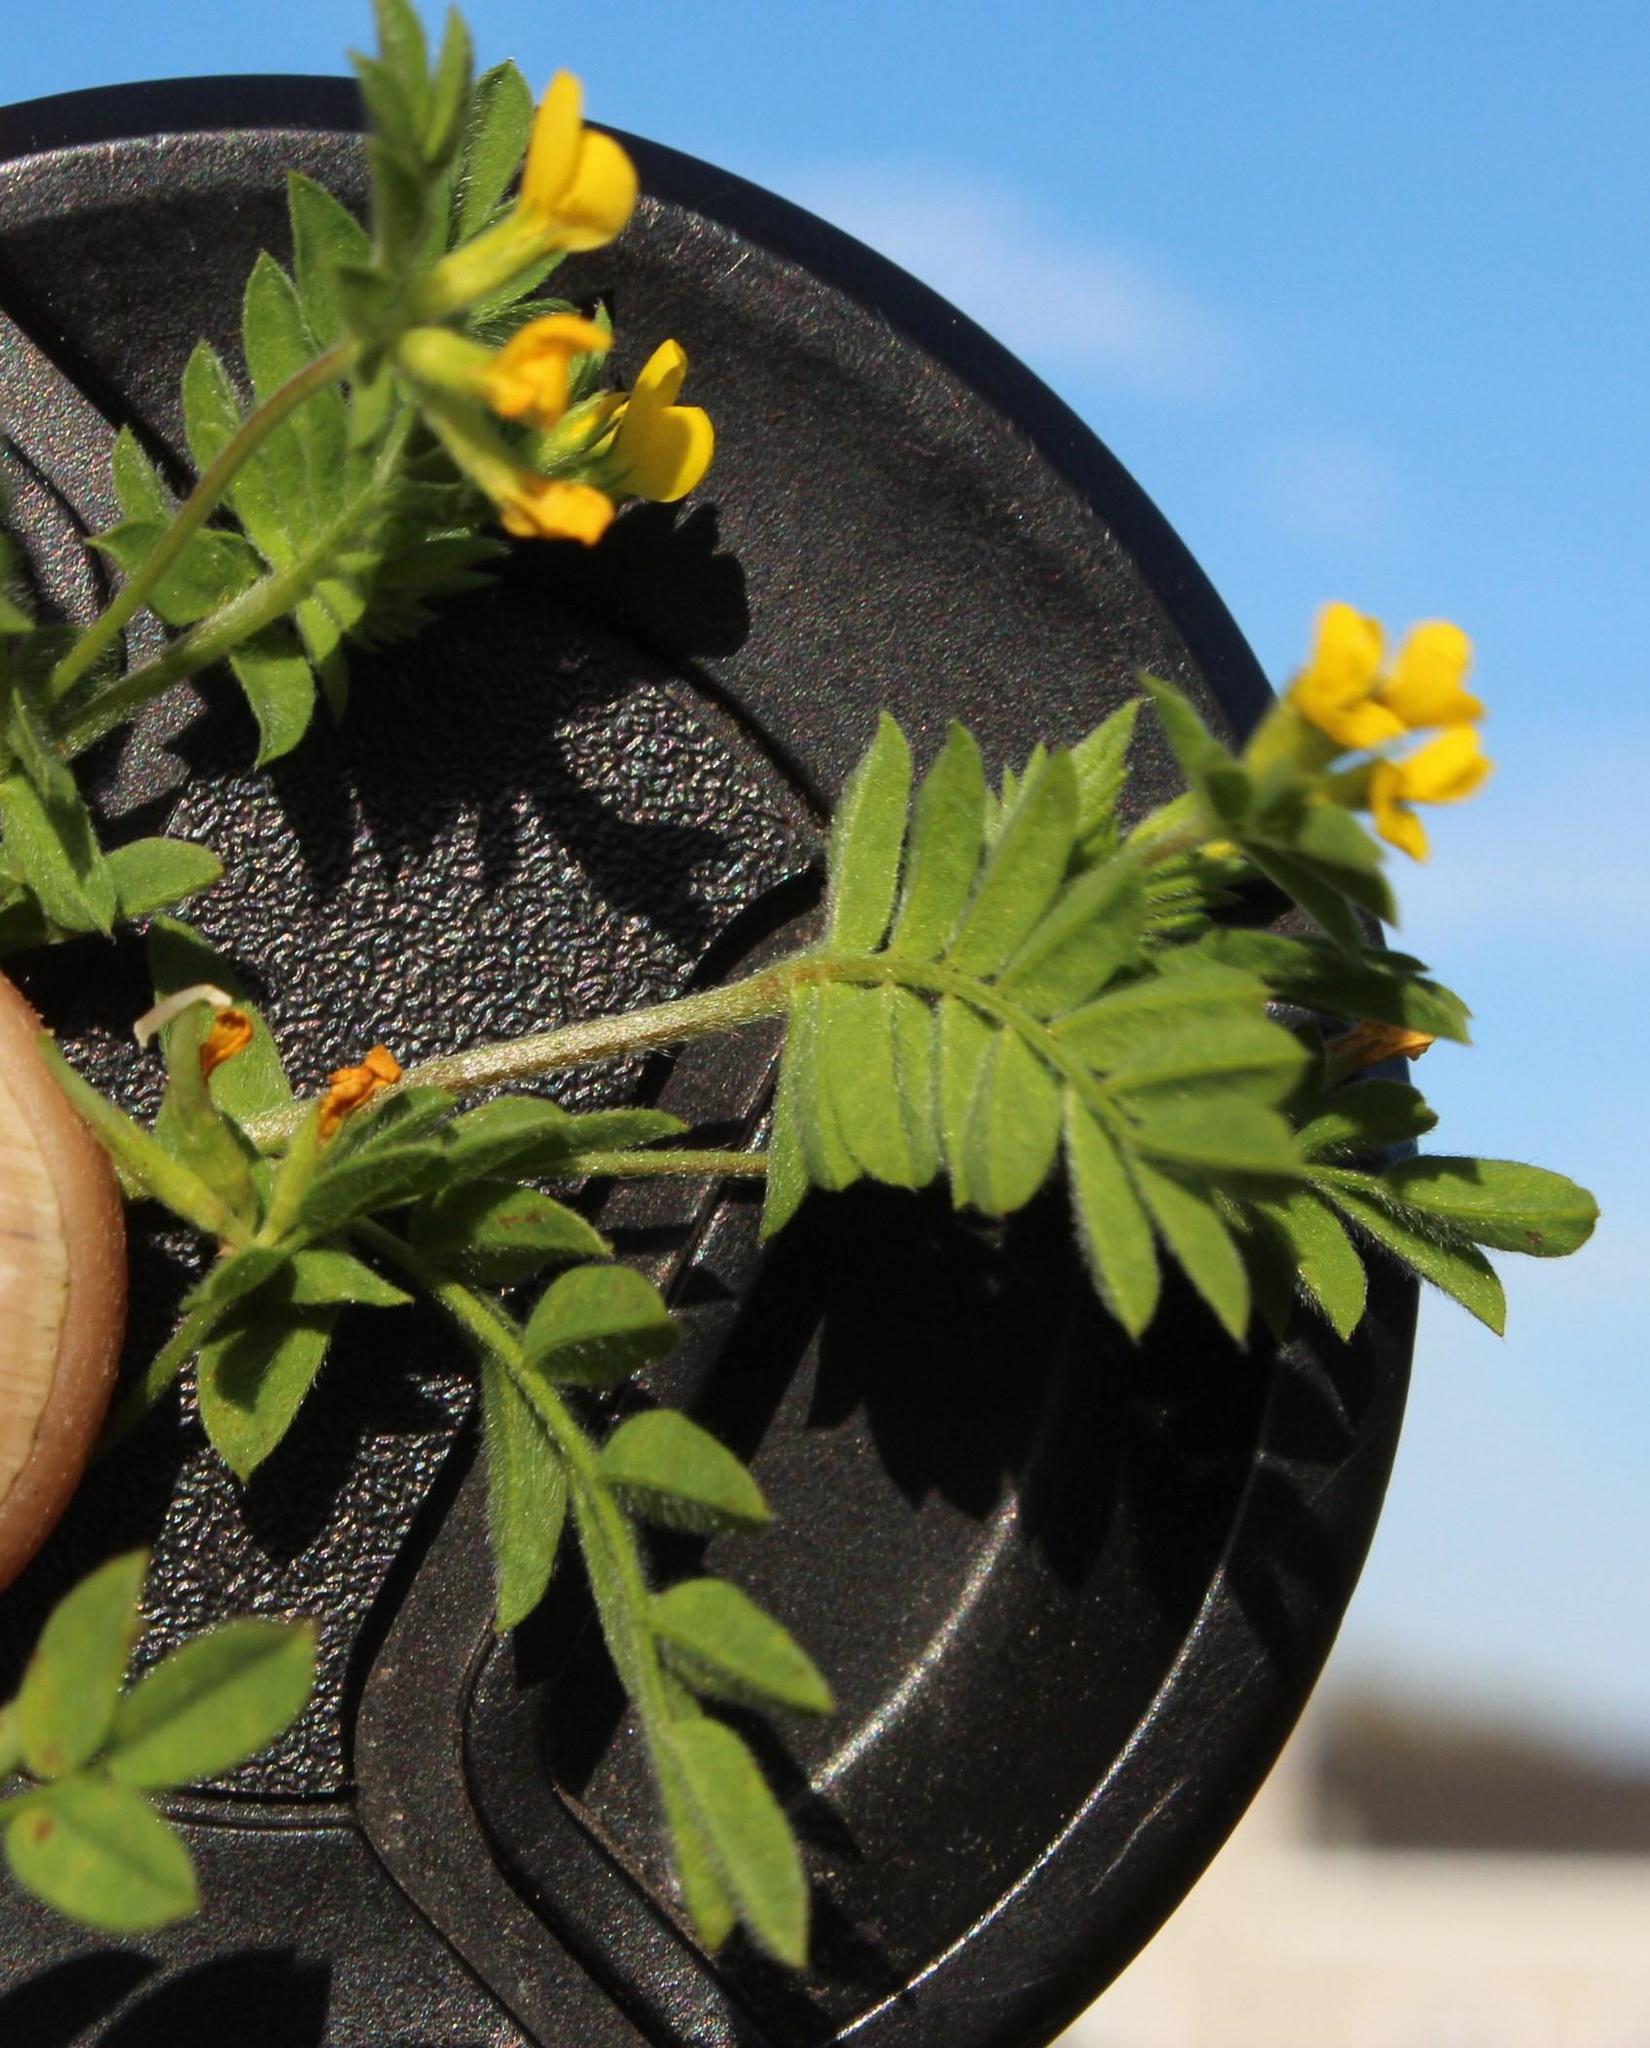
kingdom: Plantae
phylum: Tracheophyta
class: Magnoliopsida
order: Fabales
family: Fabaceae
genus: Ornithopus
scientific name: Ornithopus compressus
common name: Yellow serradella
